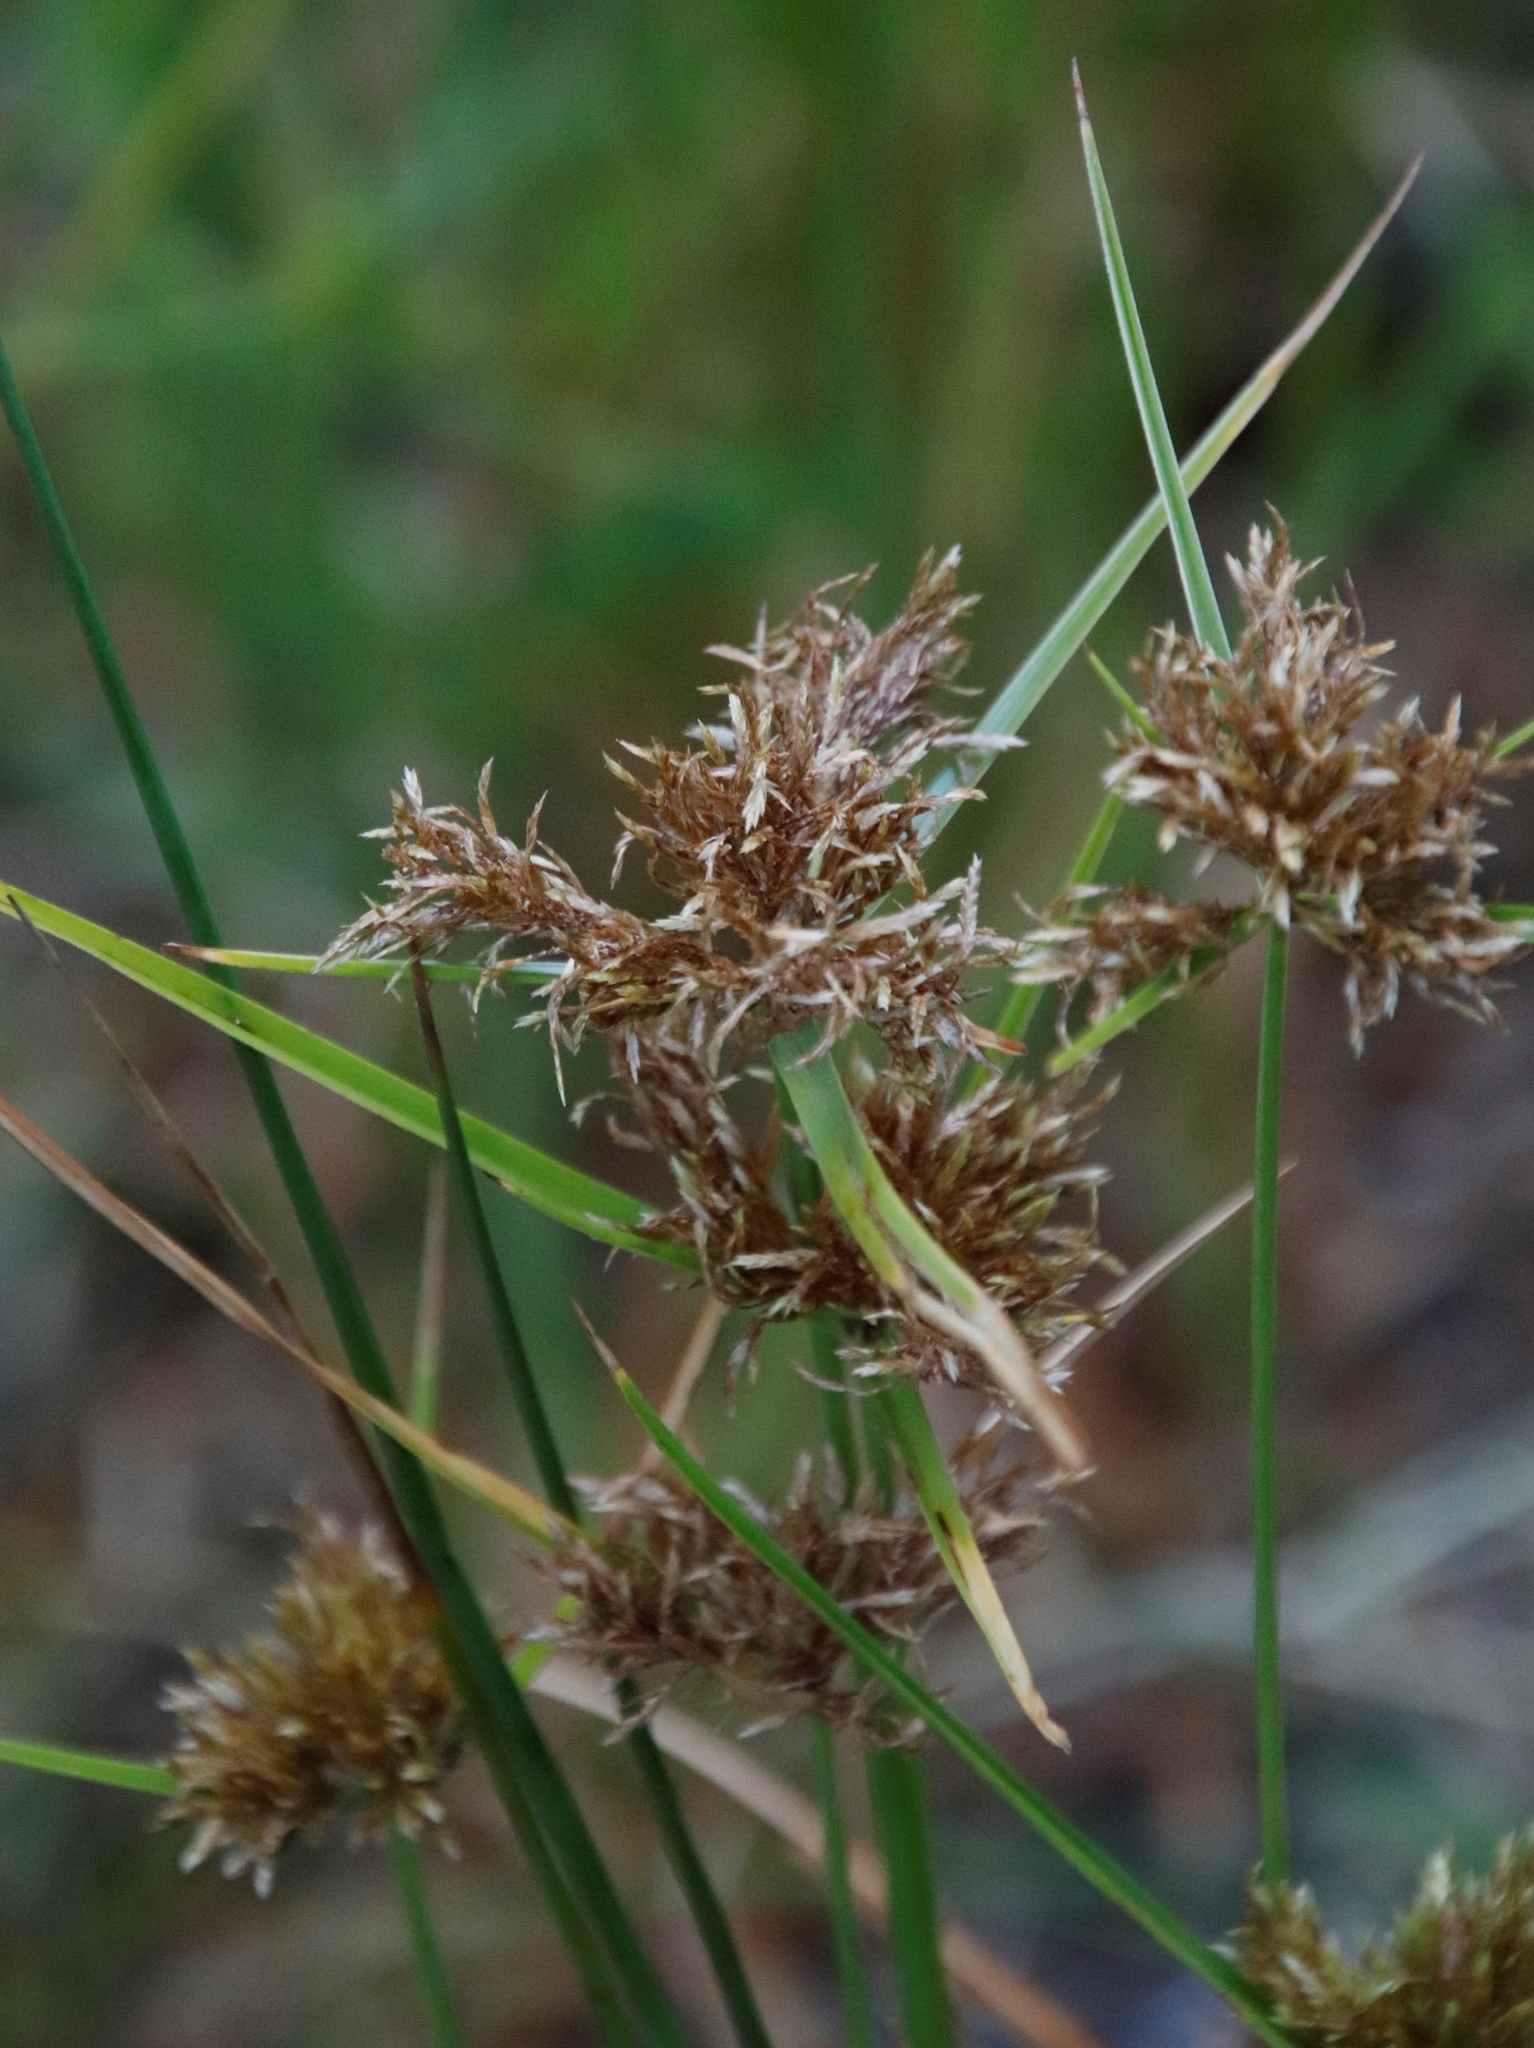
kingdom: Plantae
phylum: Tracheophyta
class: Liliopsida
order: Poales
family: Cyperaceae
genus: Cyperus
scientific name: Cyperus polystachyos
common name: Bunchy flat sedge
